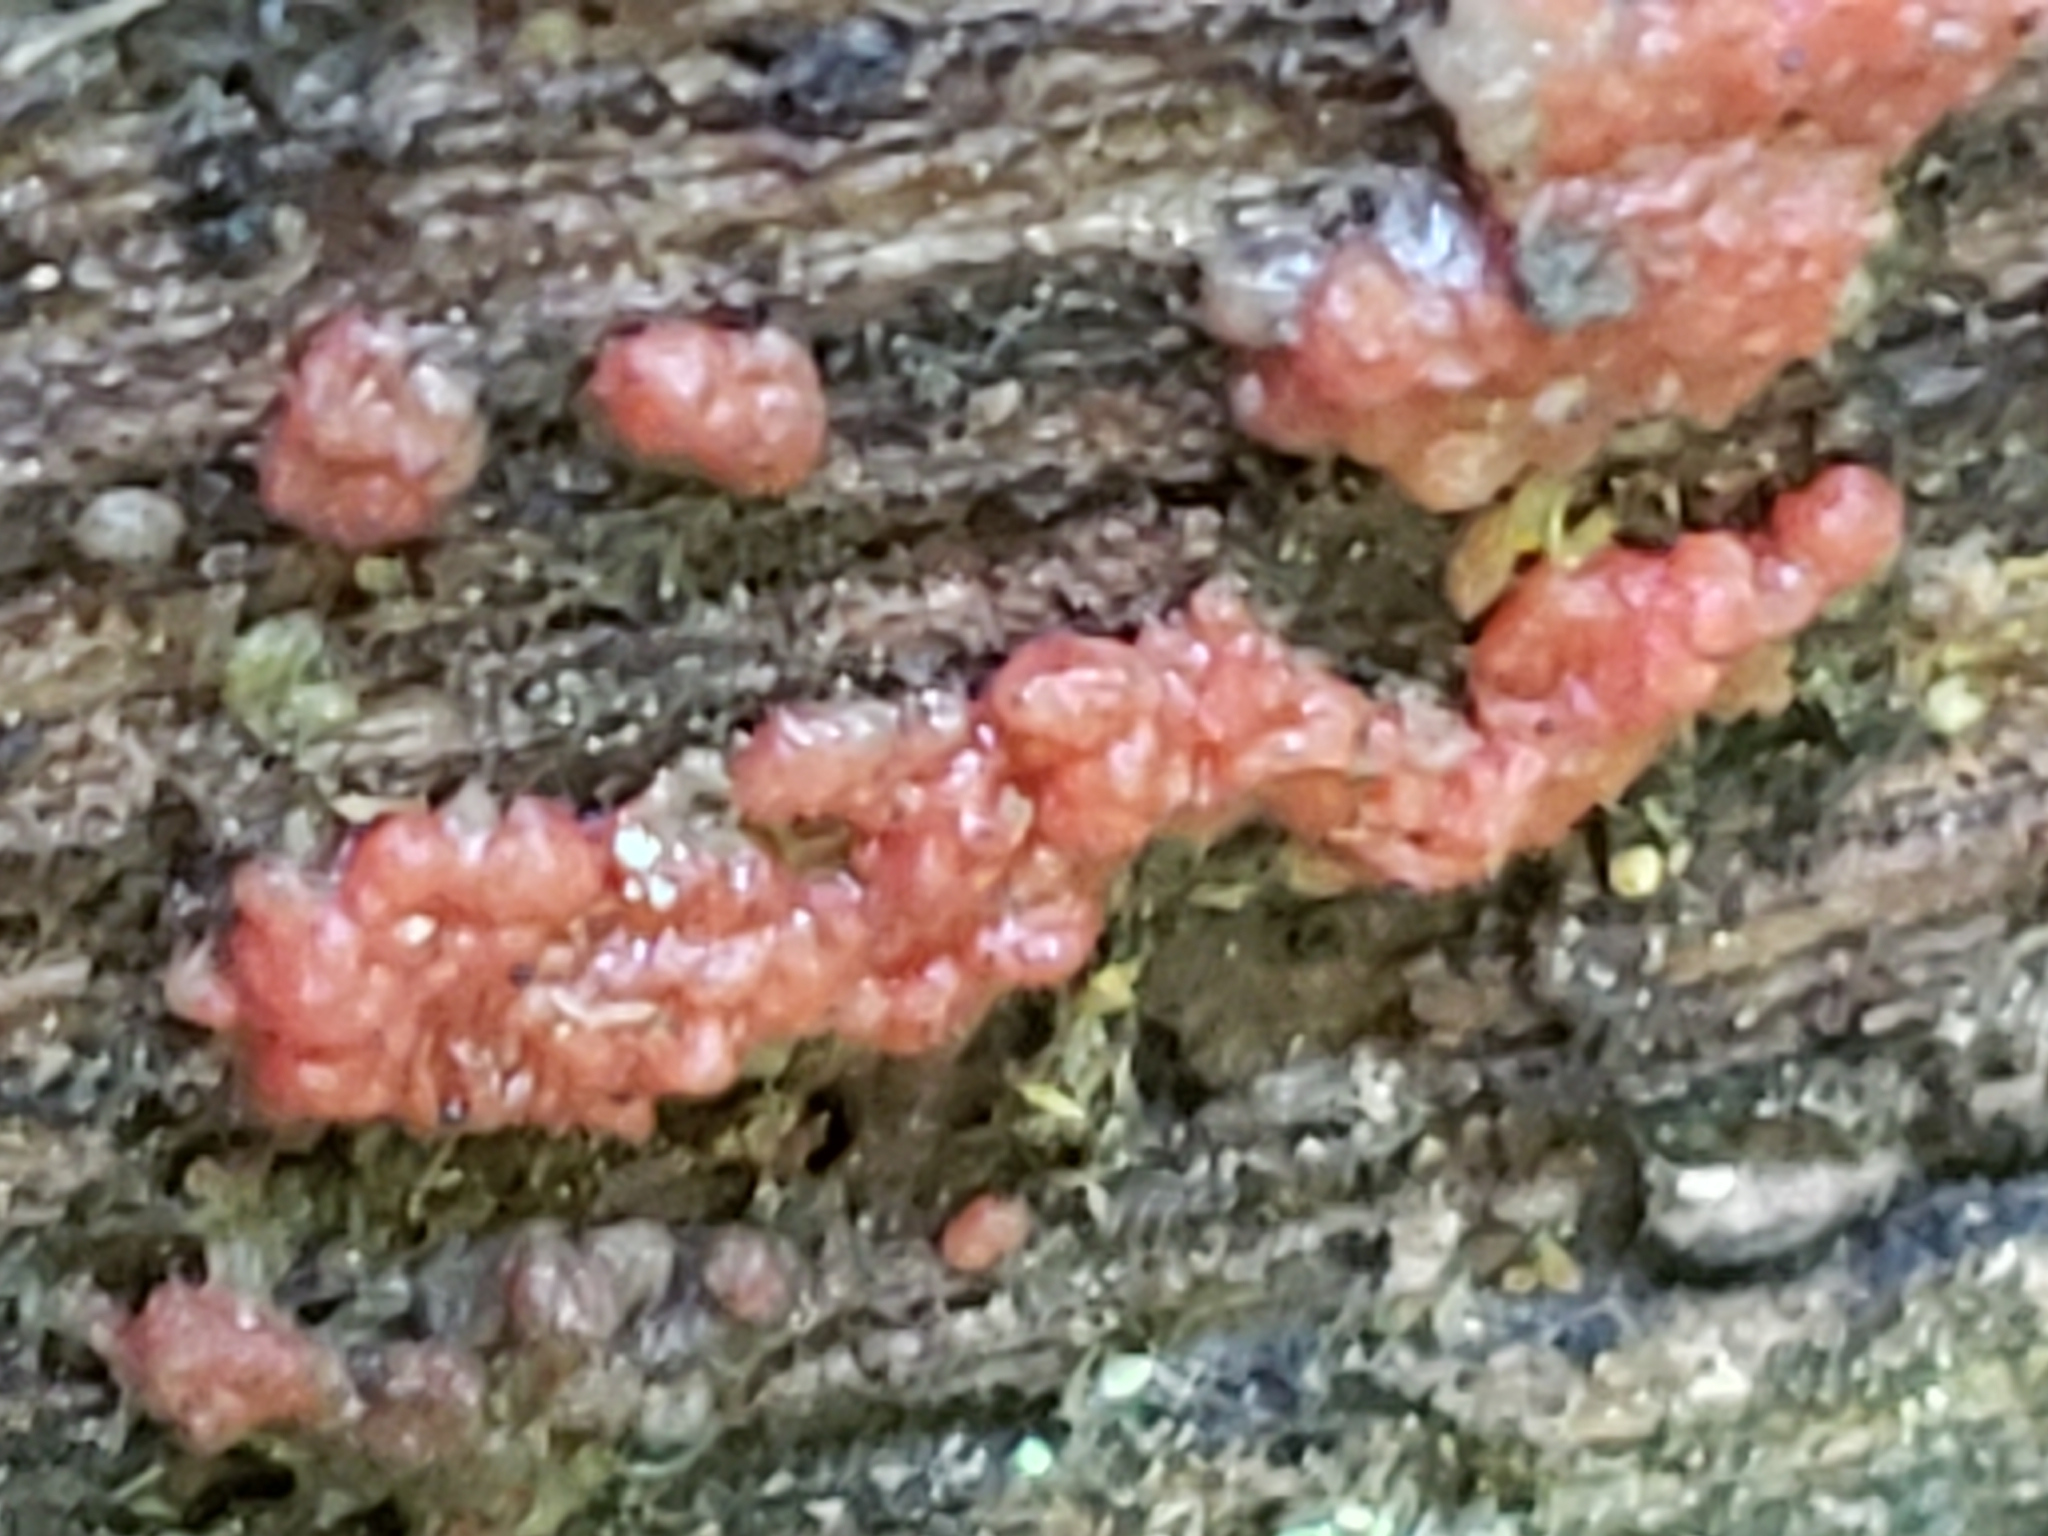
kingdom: Fungi
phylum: Basidiomycota
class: Agaricomycetes
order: Cantharellales
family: Tulasnellaceae
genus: Tulasnella
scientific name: Tulasnella aurantiaca
